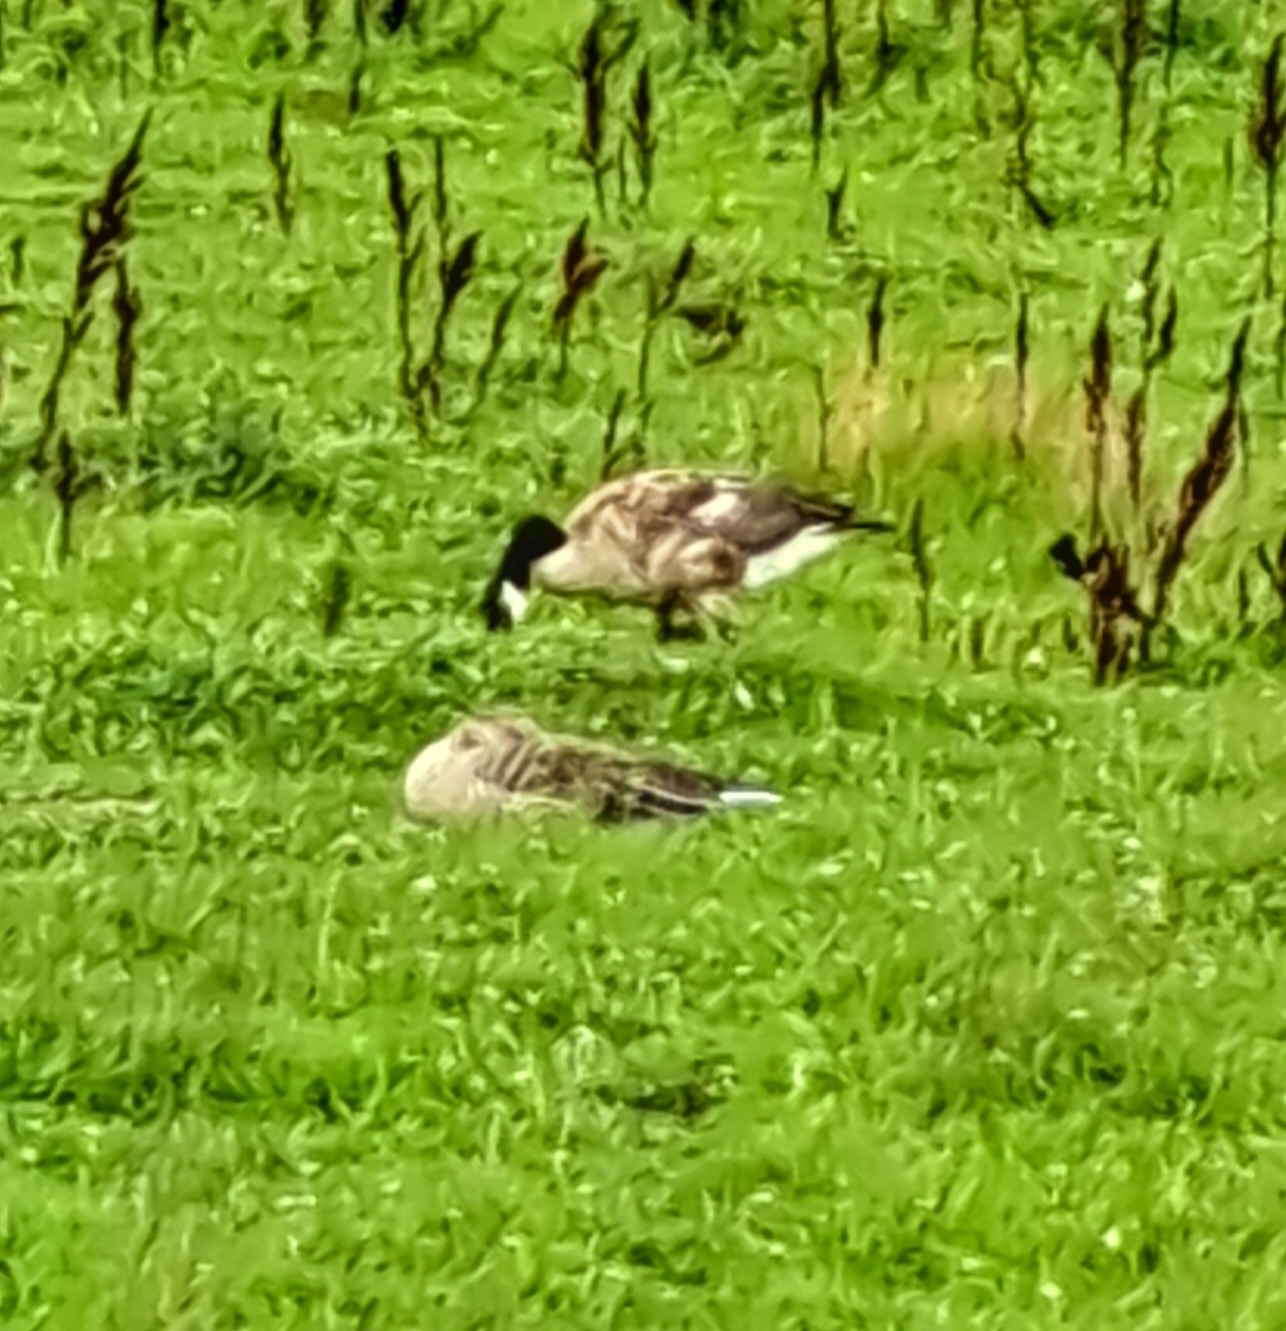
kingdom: Animalia
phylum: Chordata
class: Aves
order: Anseriformes
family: Anatidae
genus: Branta
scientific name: Branta canadensis
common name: Canada goose
